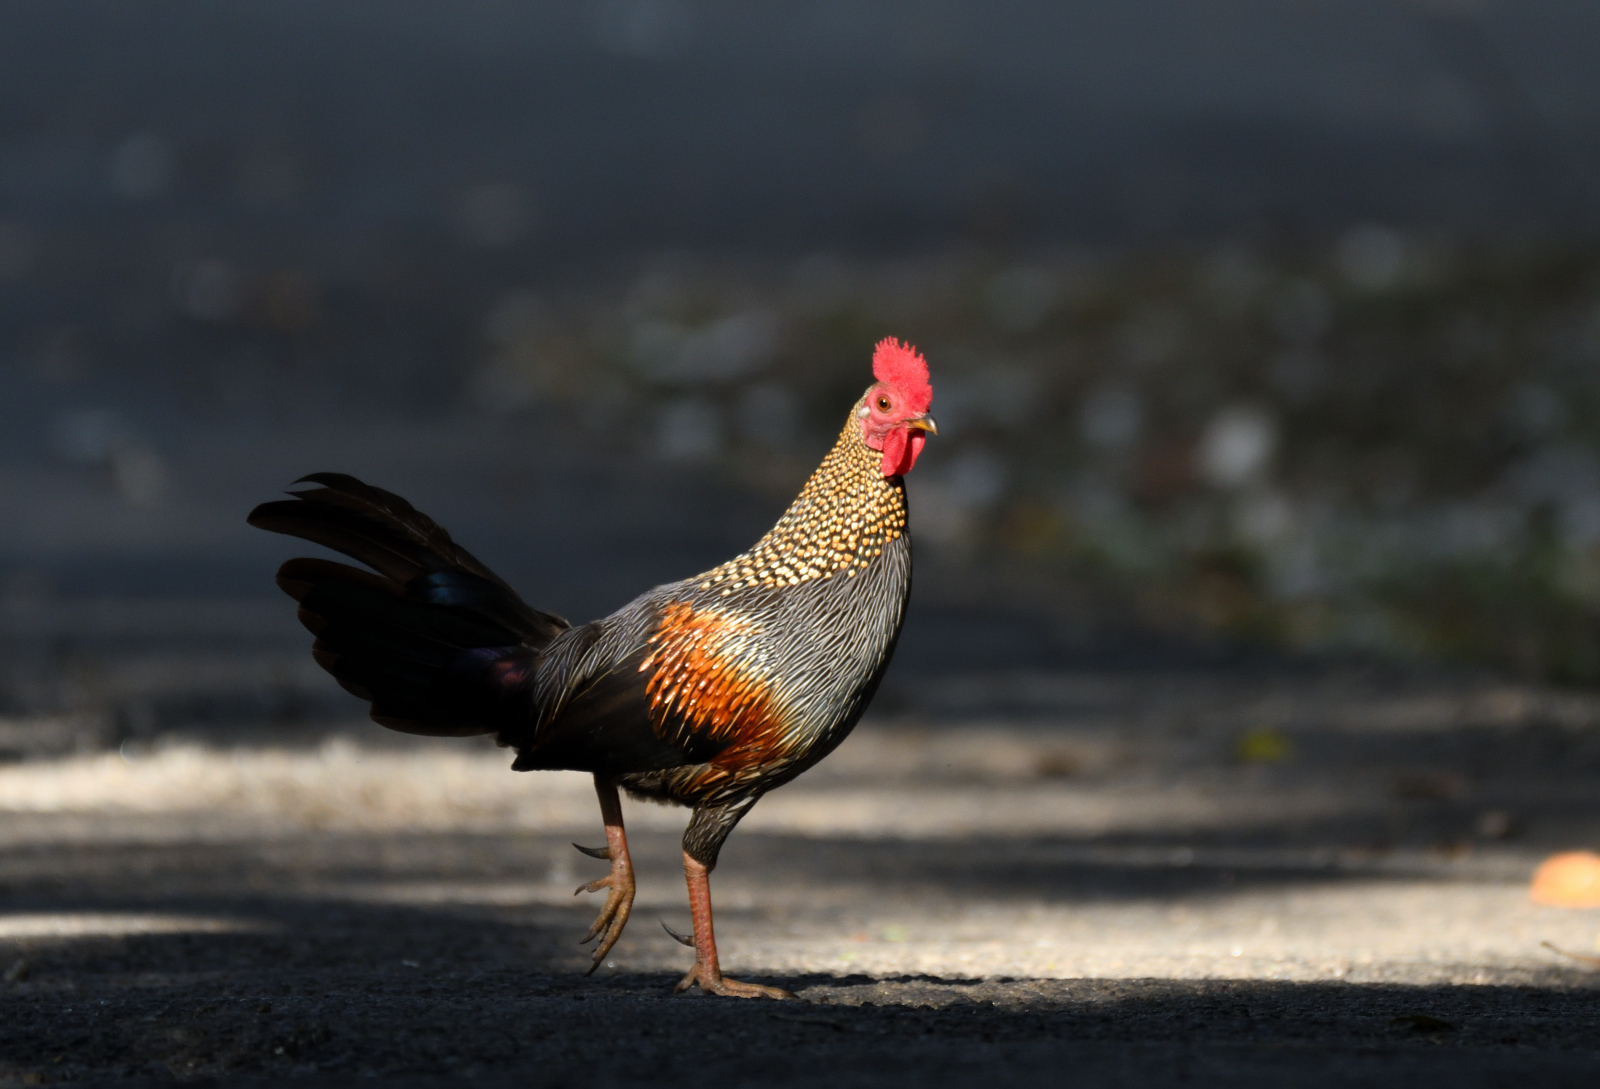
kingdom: Animalia
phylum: Chordata
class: Aves
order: Galliformes
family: Phasianidae
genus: Gallus
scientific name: Gallus sonneratii
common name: Grey junglefowl
